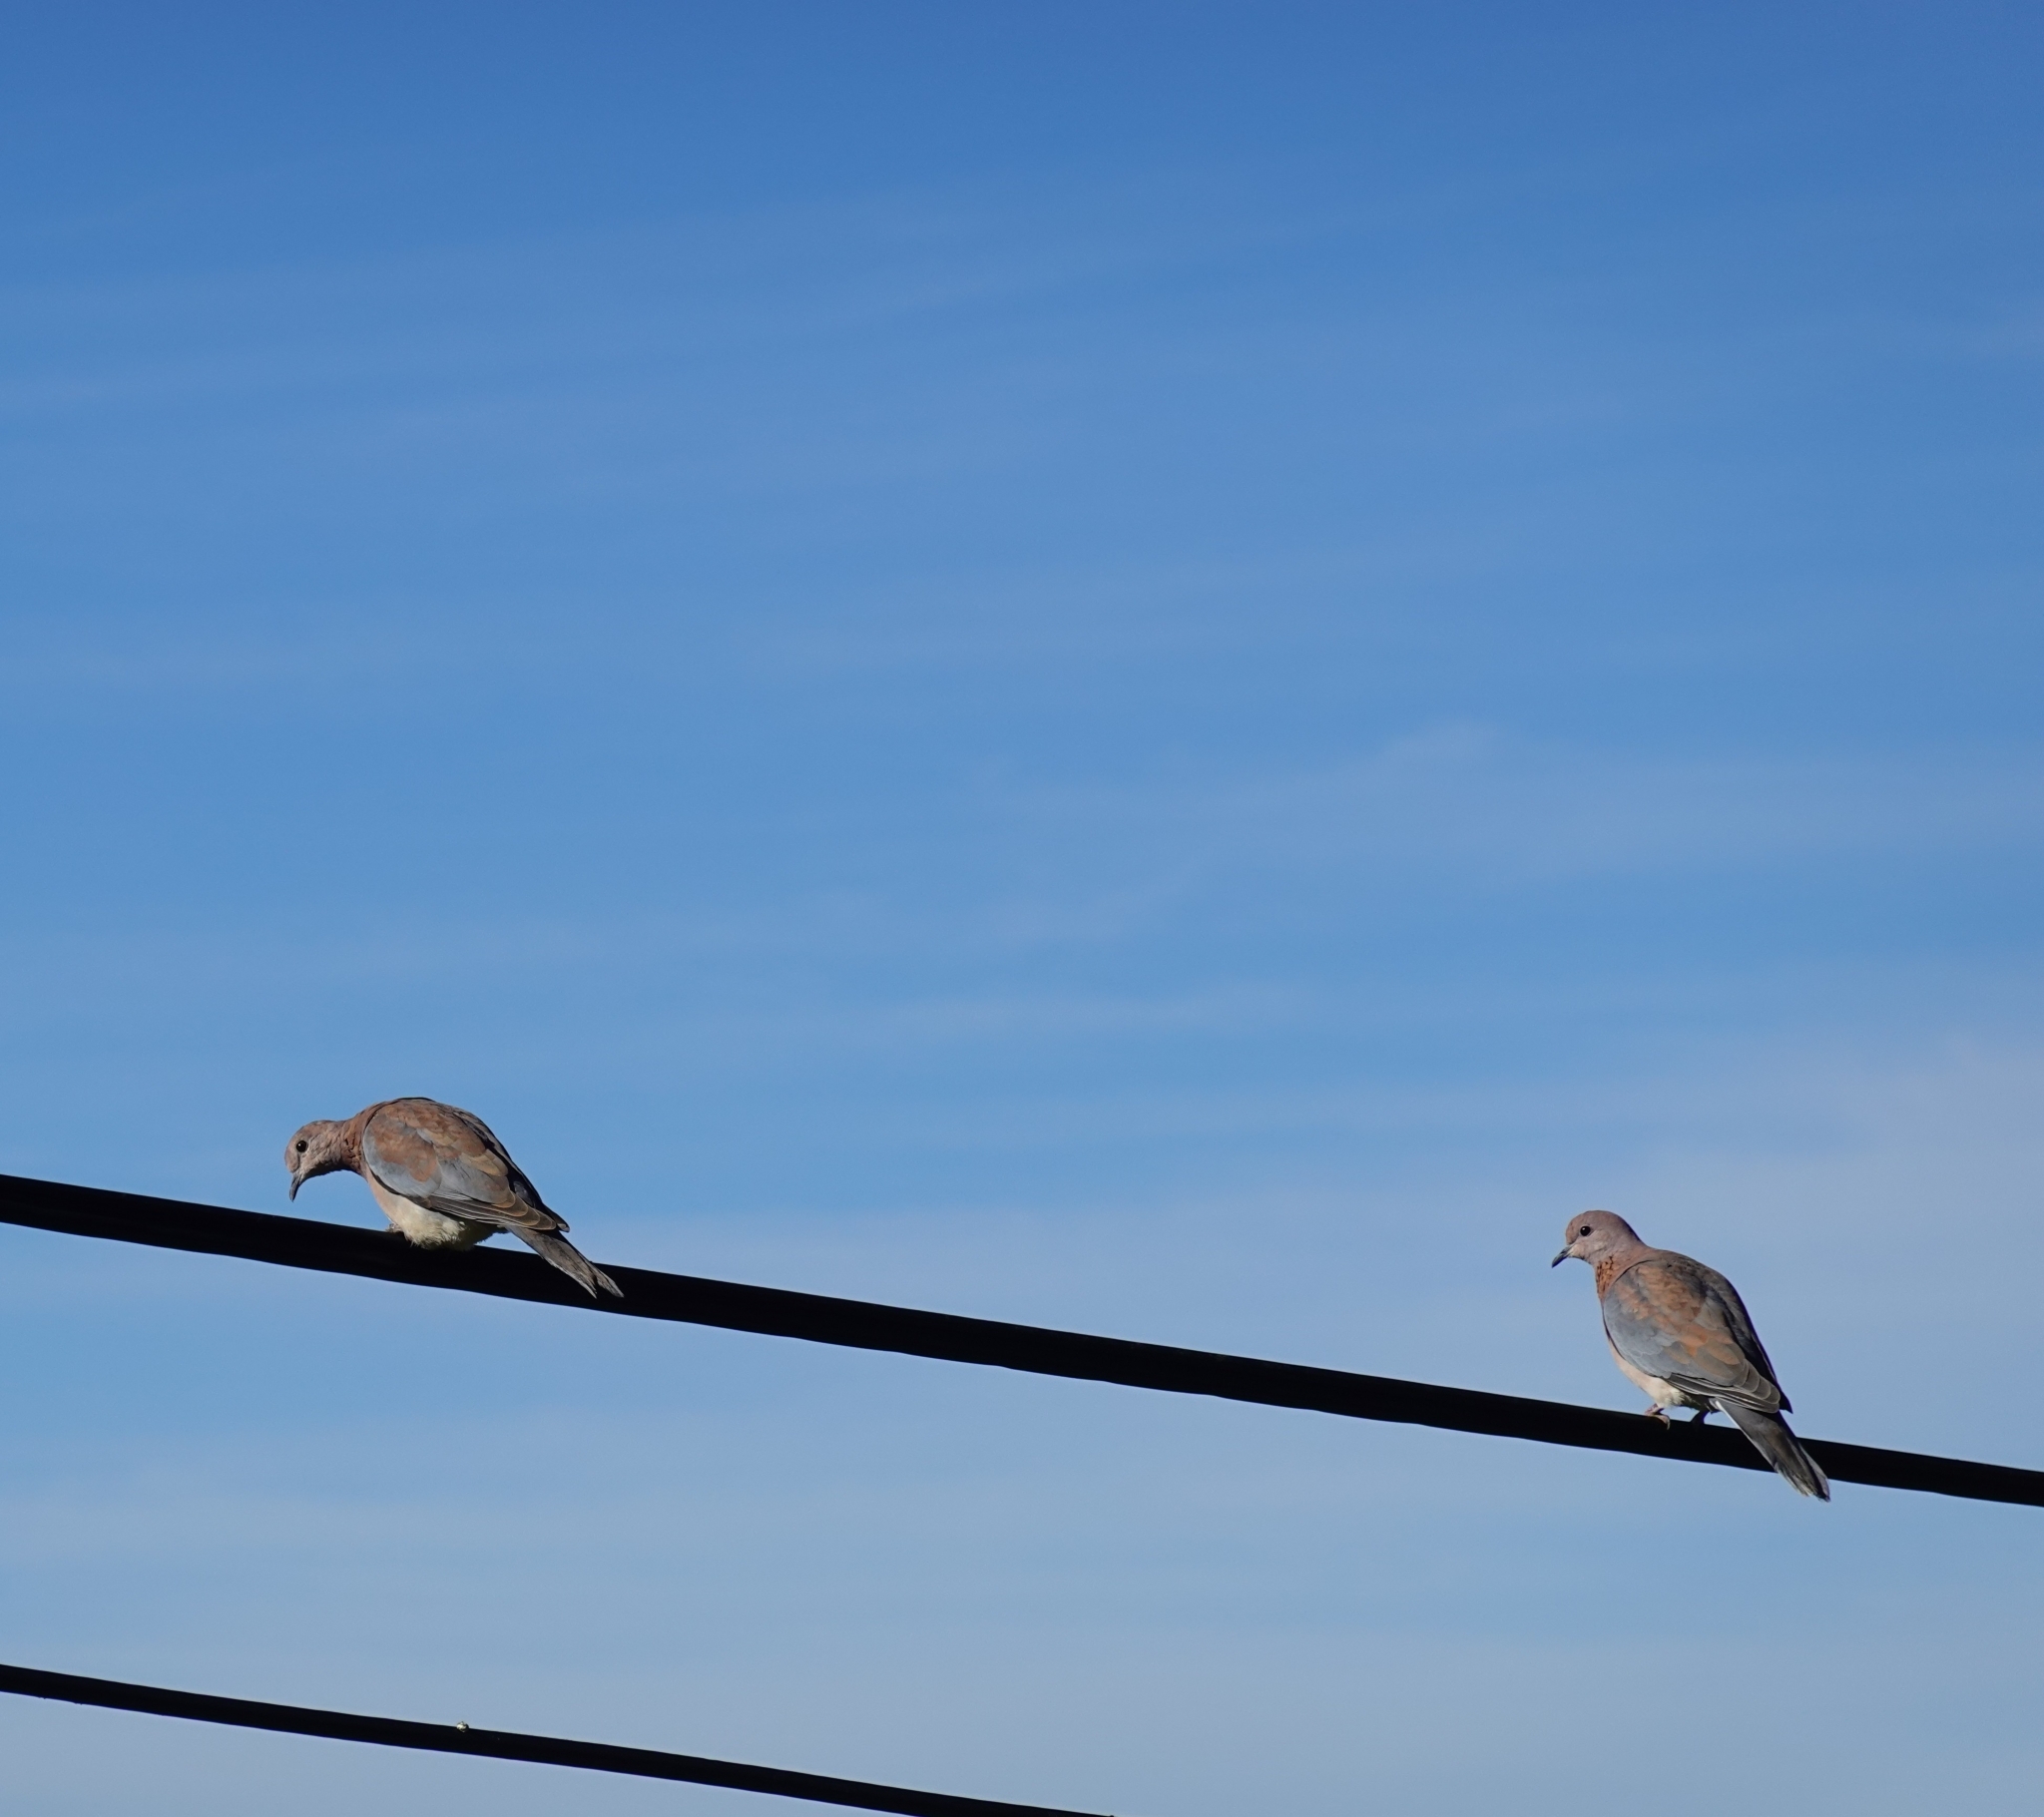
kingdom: Animalia
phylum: Chordata
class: Aves
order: Columbiformes
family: Columbidae
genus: Spilopelia
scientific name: Spilopelia senegalensis
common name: Laughing dove
